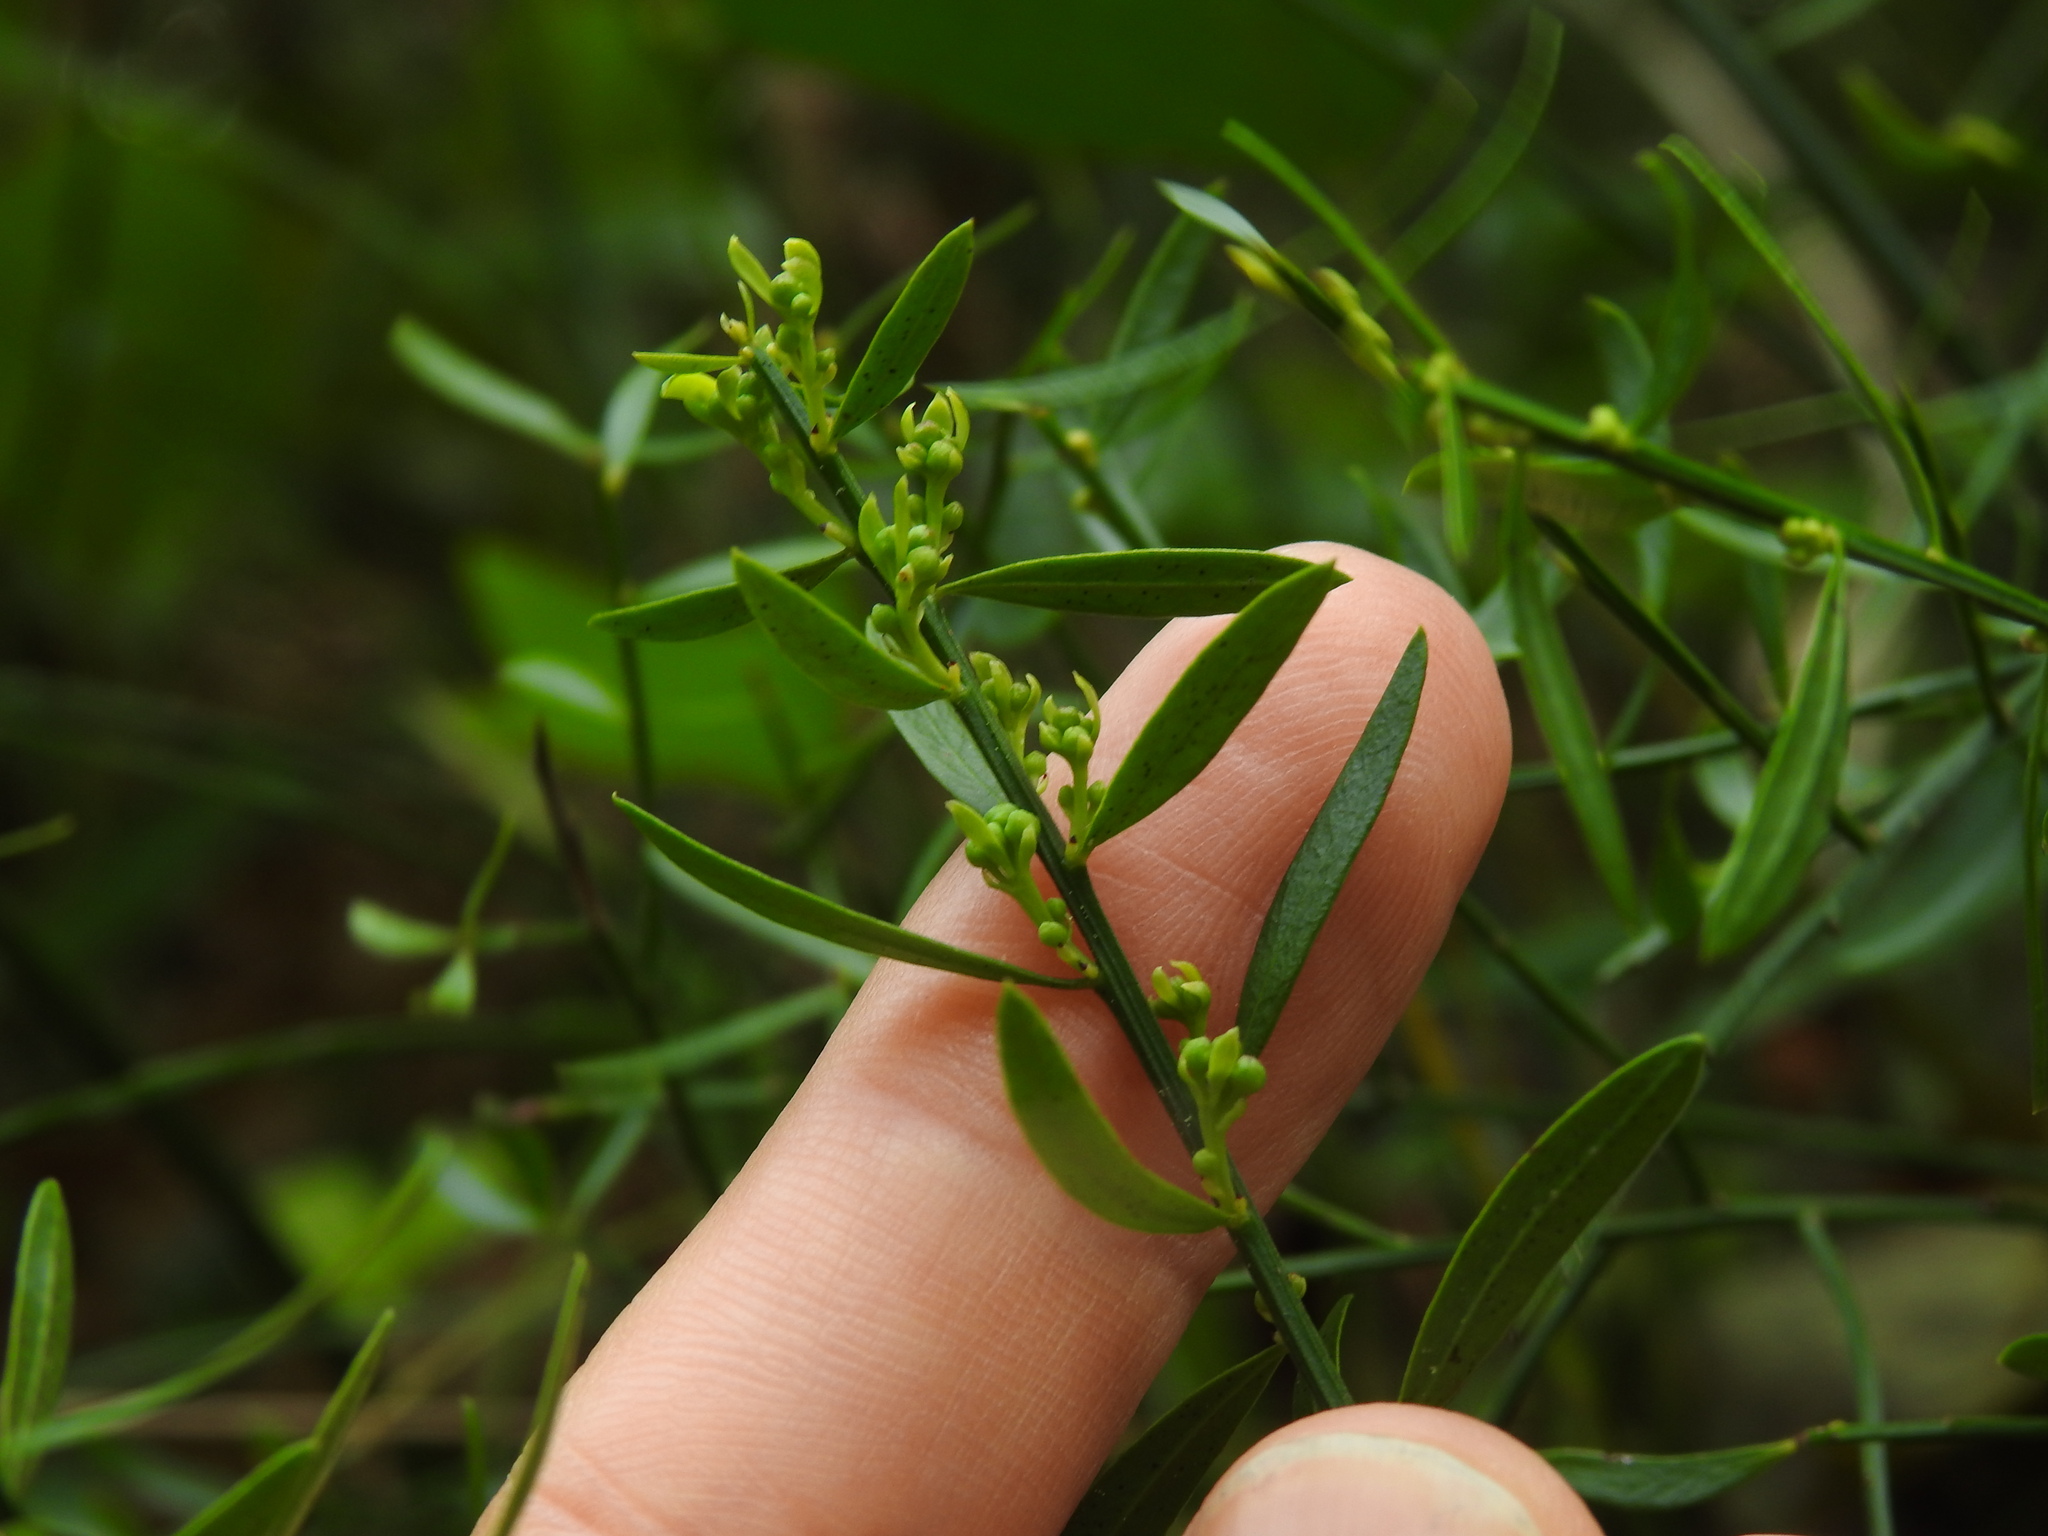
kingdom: Plantae
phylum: Tracheophyta
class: Magnoliopsida
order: Santalales
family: Santalaceae
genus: Osyris
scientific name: Osyris alba
